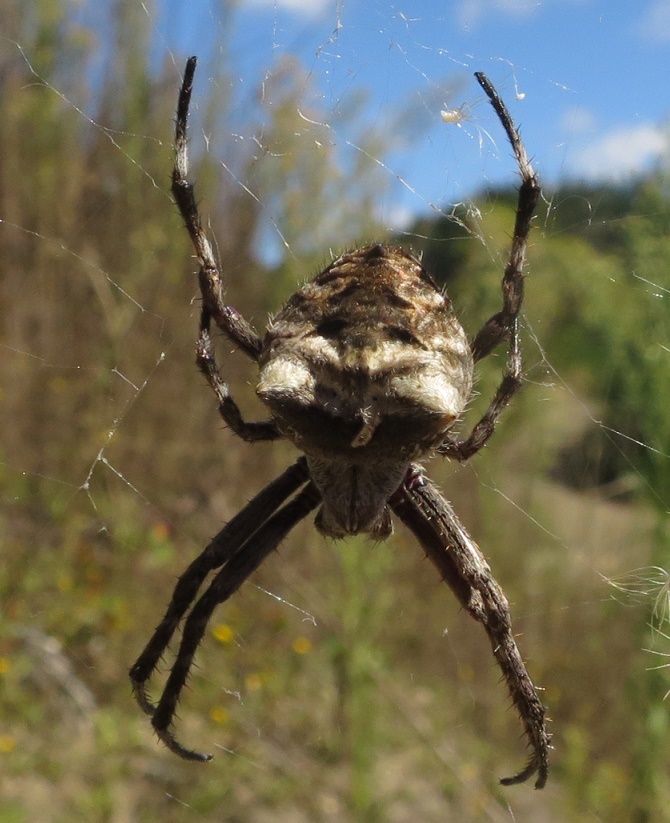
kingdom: Animalia
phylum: Arthropoda
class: Arachnida
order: Araneae
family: Araneidae
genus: Backobourkia
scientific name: Backobourkia brouni
